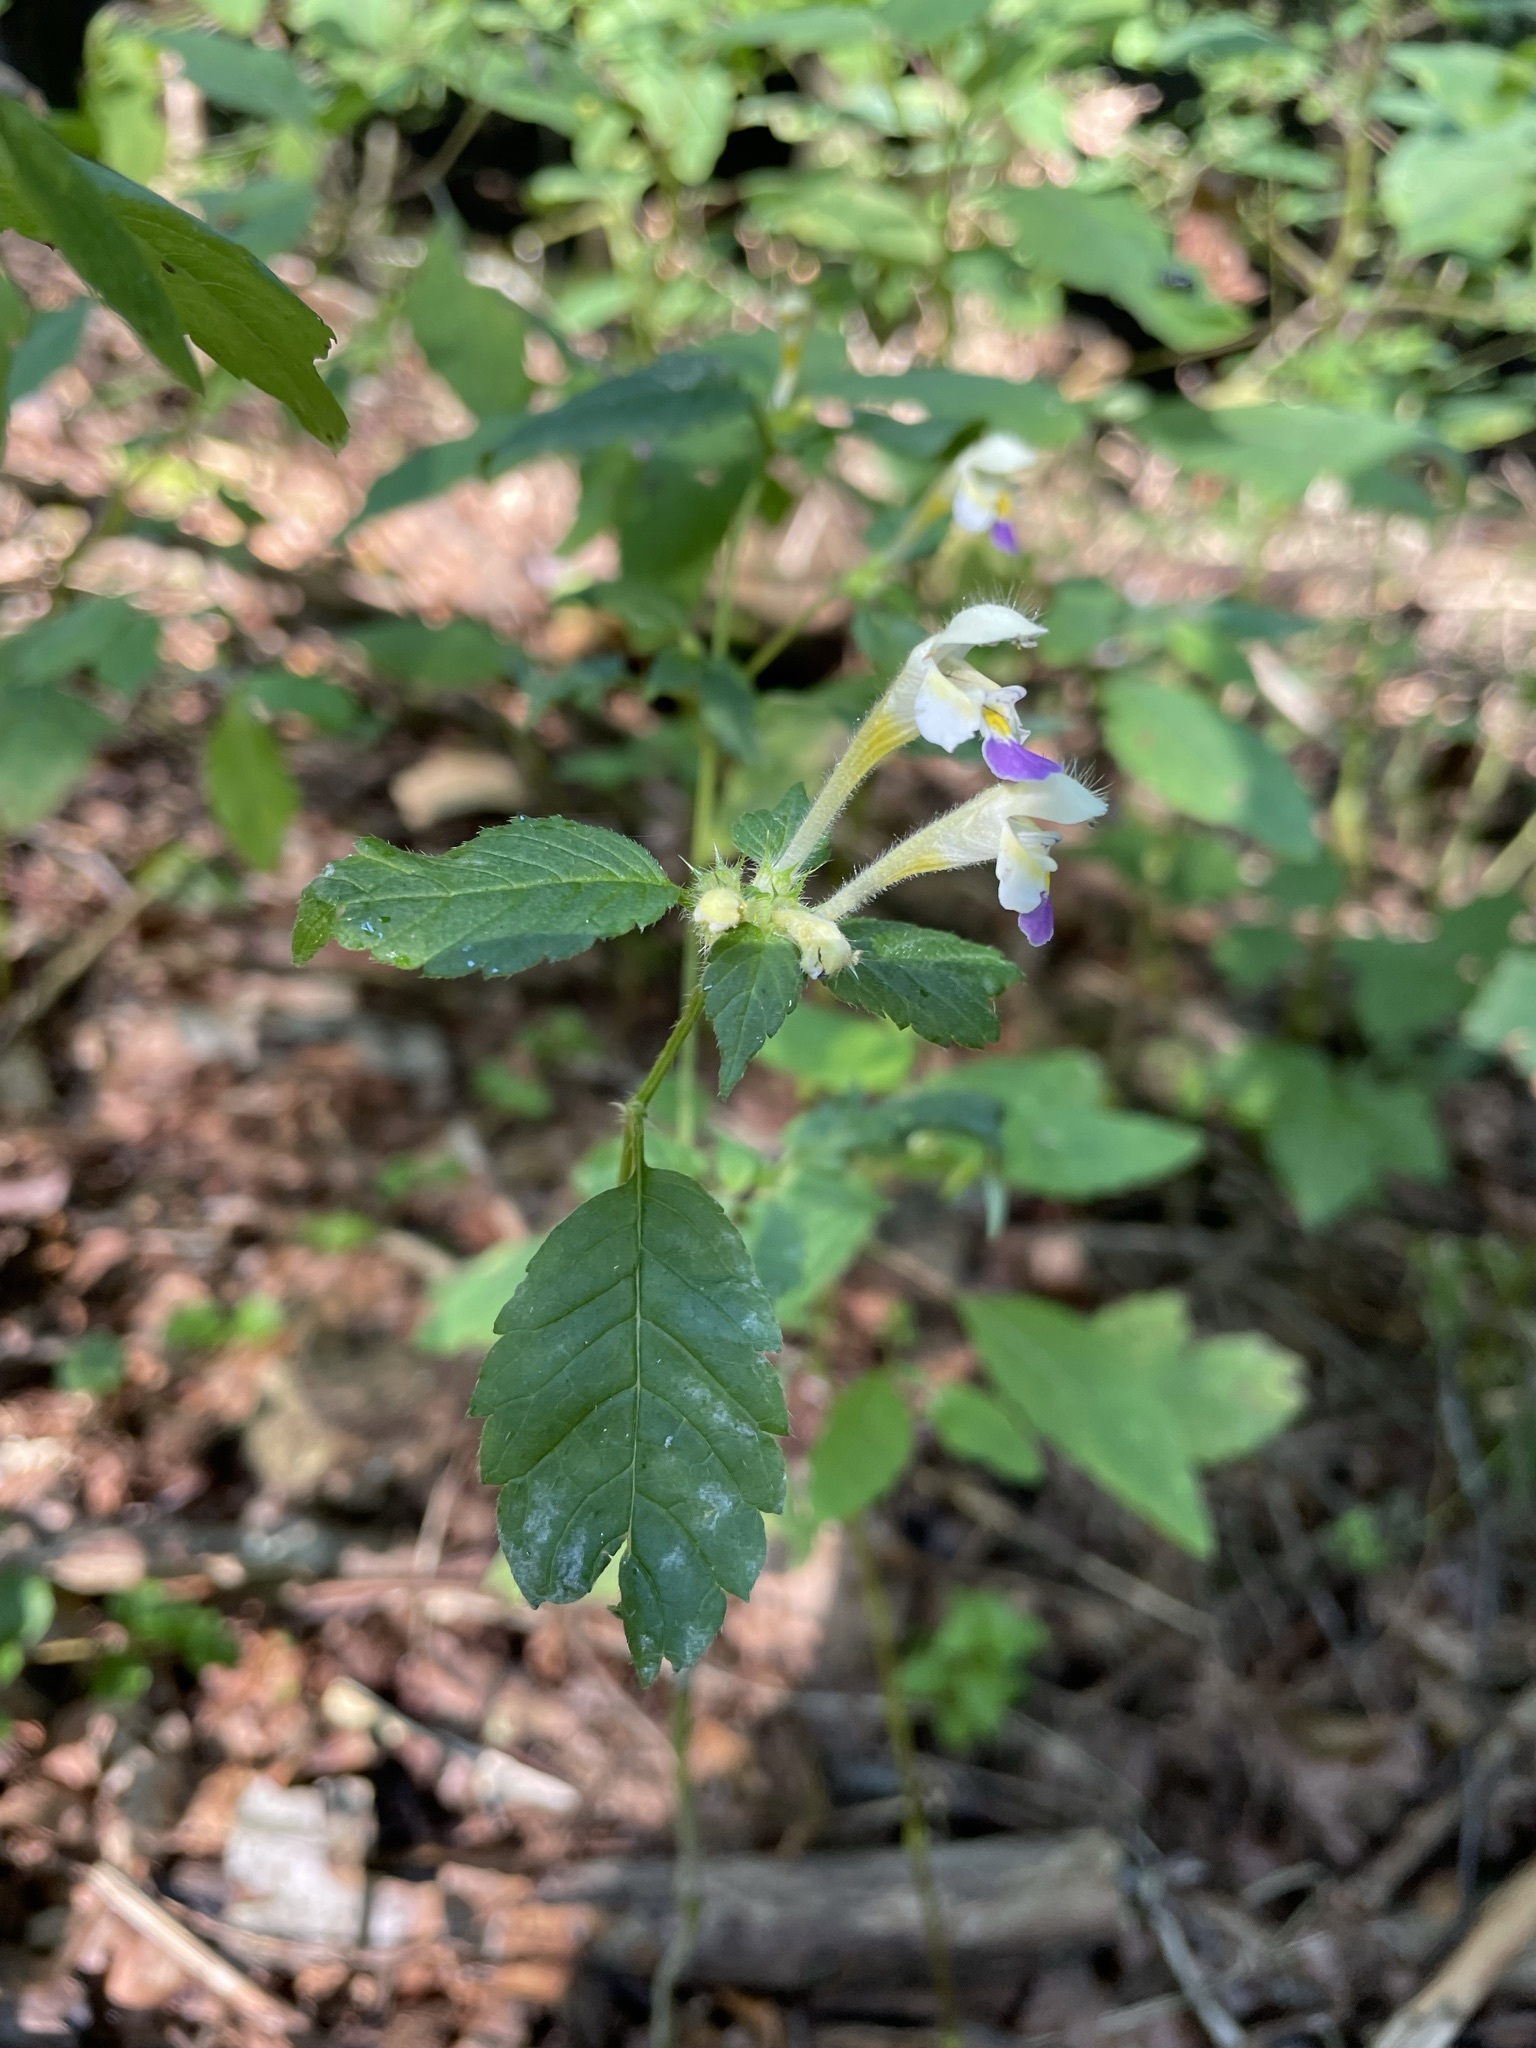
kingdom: Plantae
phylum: Tracheophyta
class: Magnoliopsida
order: Lamiales
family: Lamiaceae
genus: Galeopsis
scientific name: Galeopsis speciosa
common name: Large-flowered hemp-nettle
